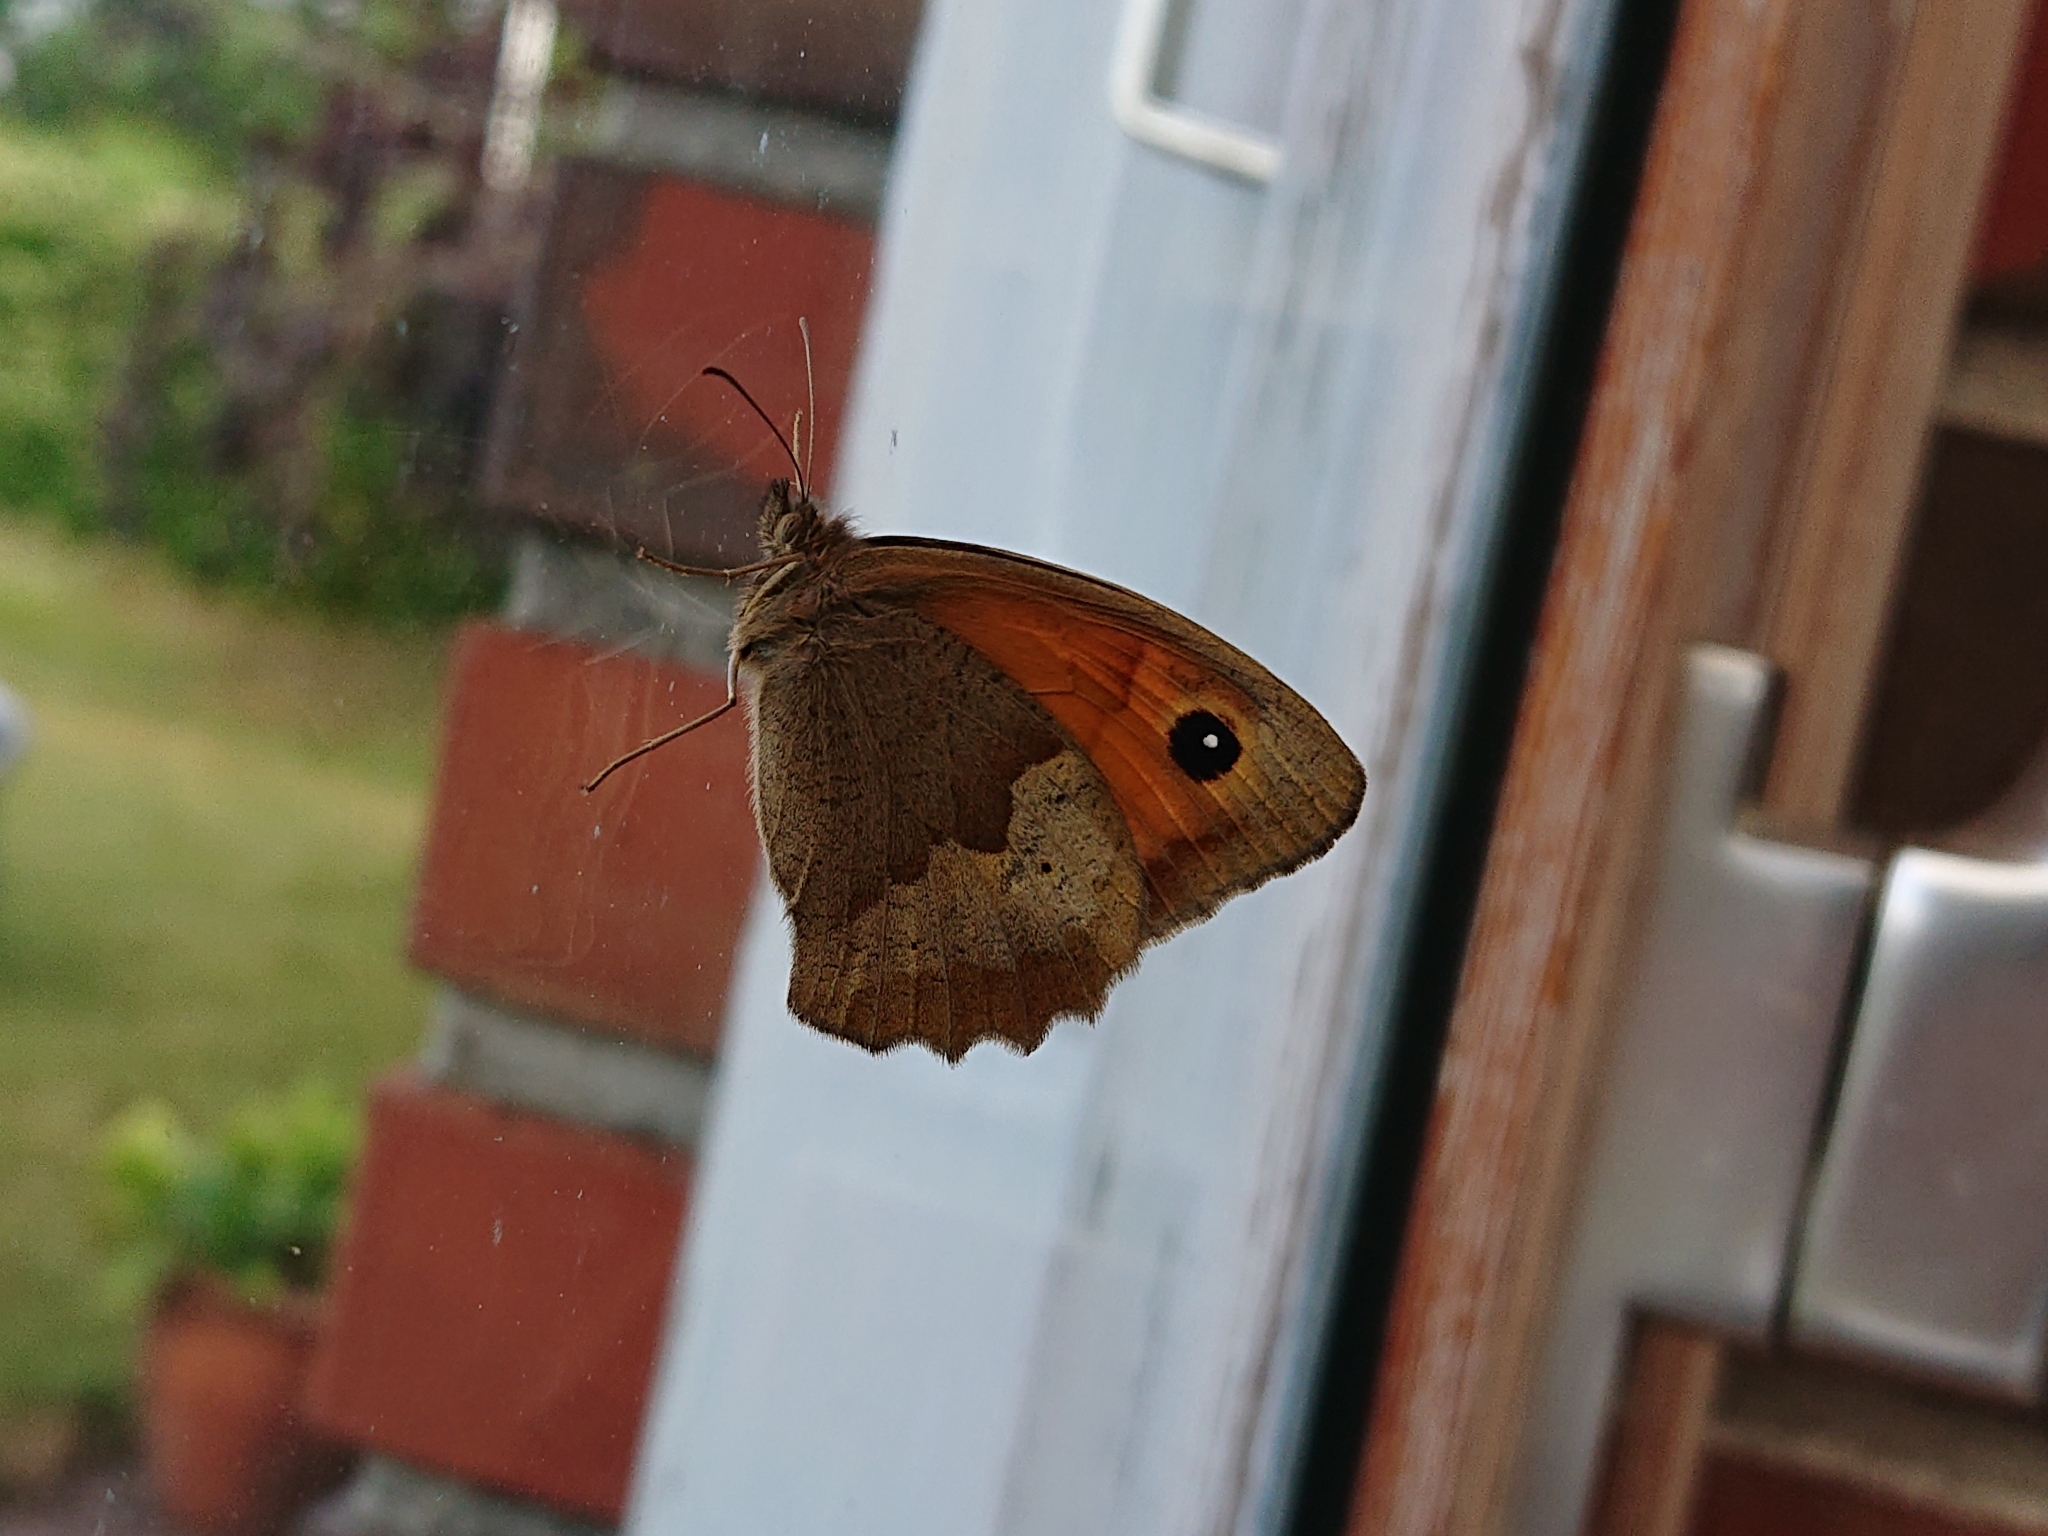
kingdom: Animalia
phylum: Arthropoda
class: Insecta
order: Lepidoptera
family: Nymphalidae
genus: Maniola
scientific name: Maniola jurtina
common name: Meadow brown
